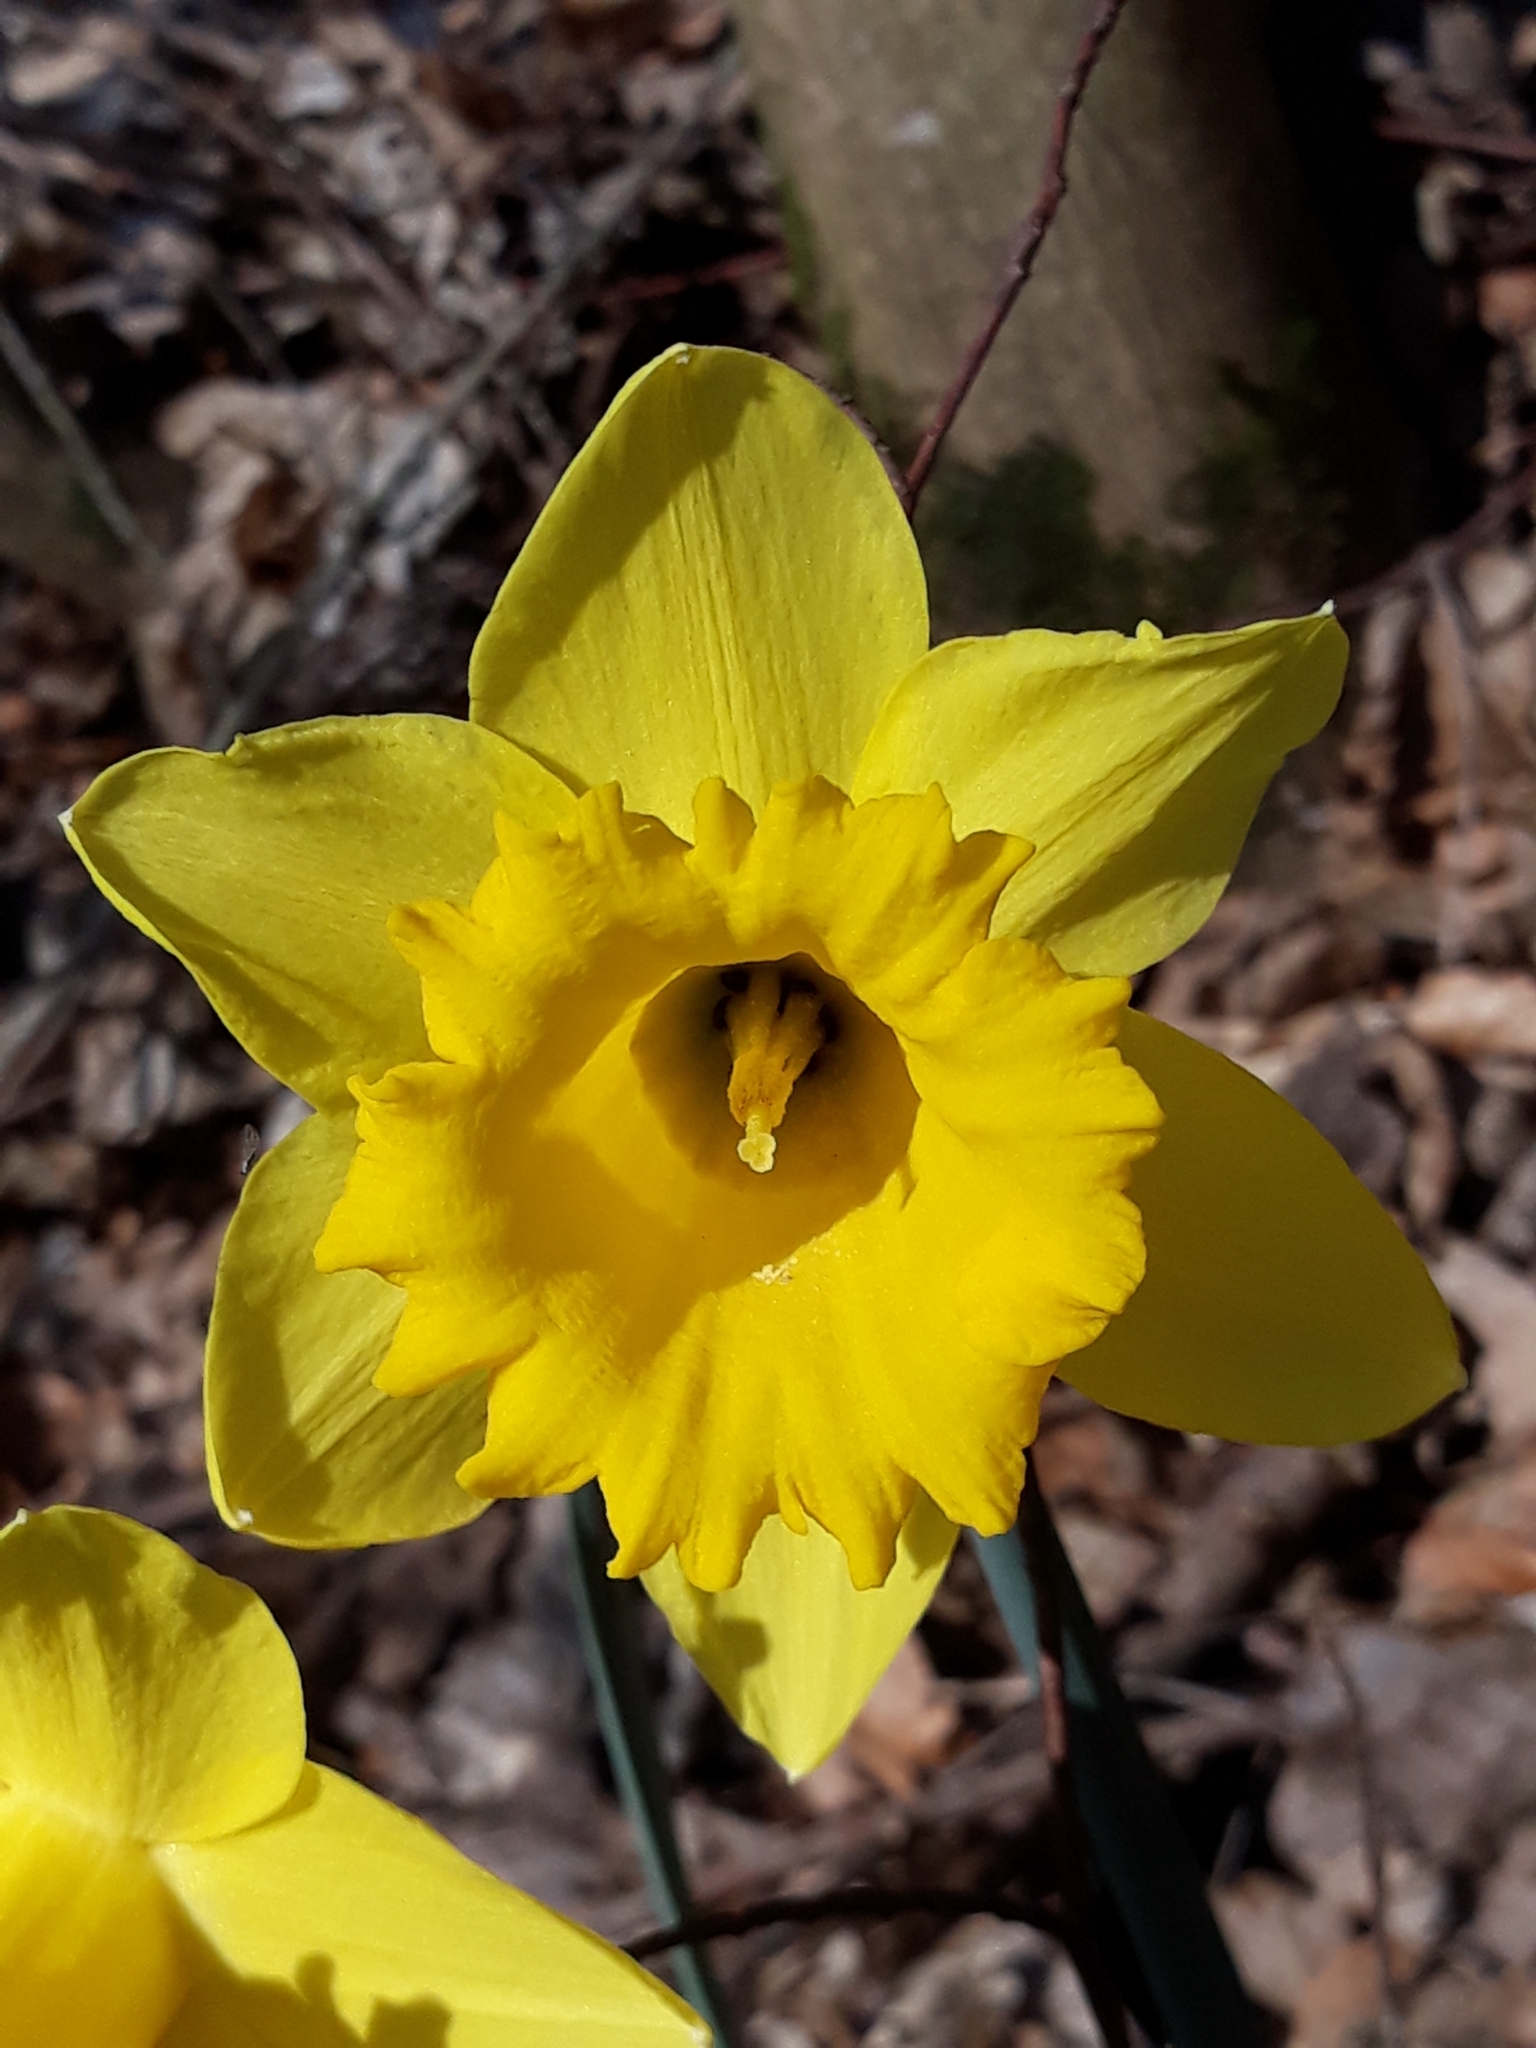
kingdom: Plantae
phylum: Tracheophyta
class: Liliopsida
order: Asparagales
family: Amaryllidaceae
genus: Narcissus
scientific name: Narcissus pseudonarcissus
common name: Daffodil
